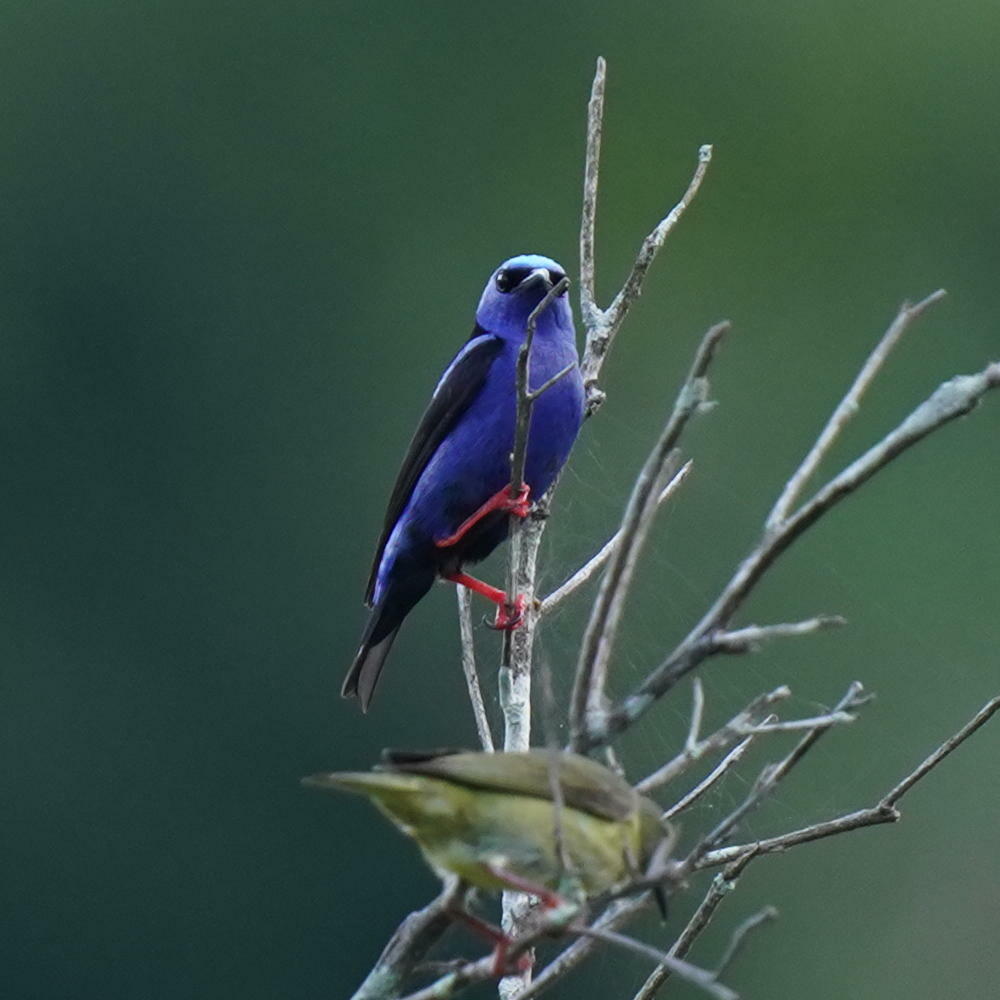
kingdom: Animalia
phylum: Chordata
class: Aves
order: Passeriformes
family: Thraupidae
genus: Cyanerpes
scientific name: Cyanerpes cyaneus
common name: Red-legged honeycreeper
